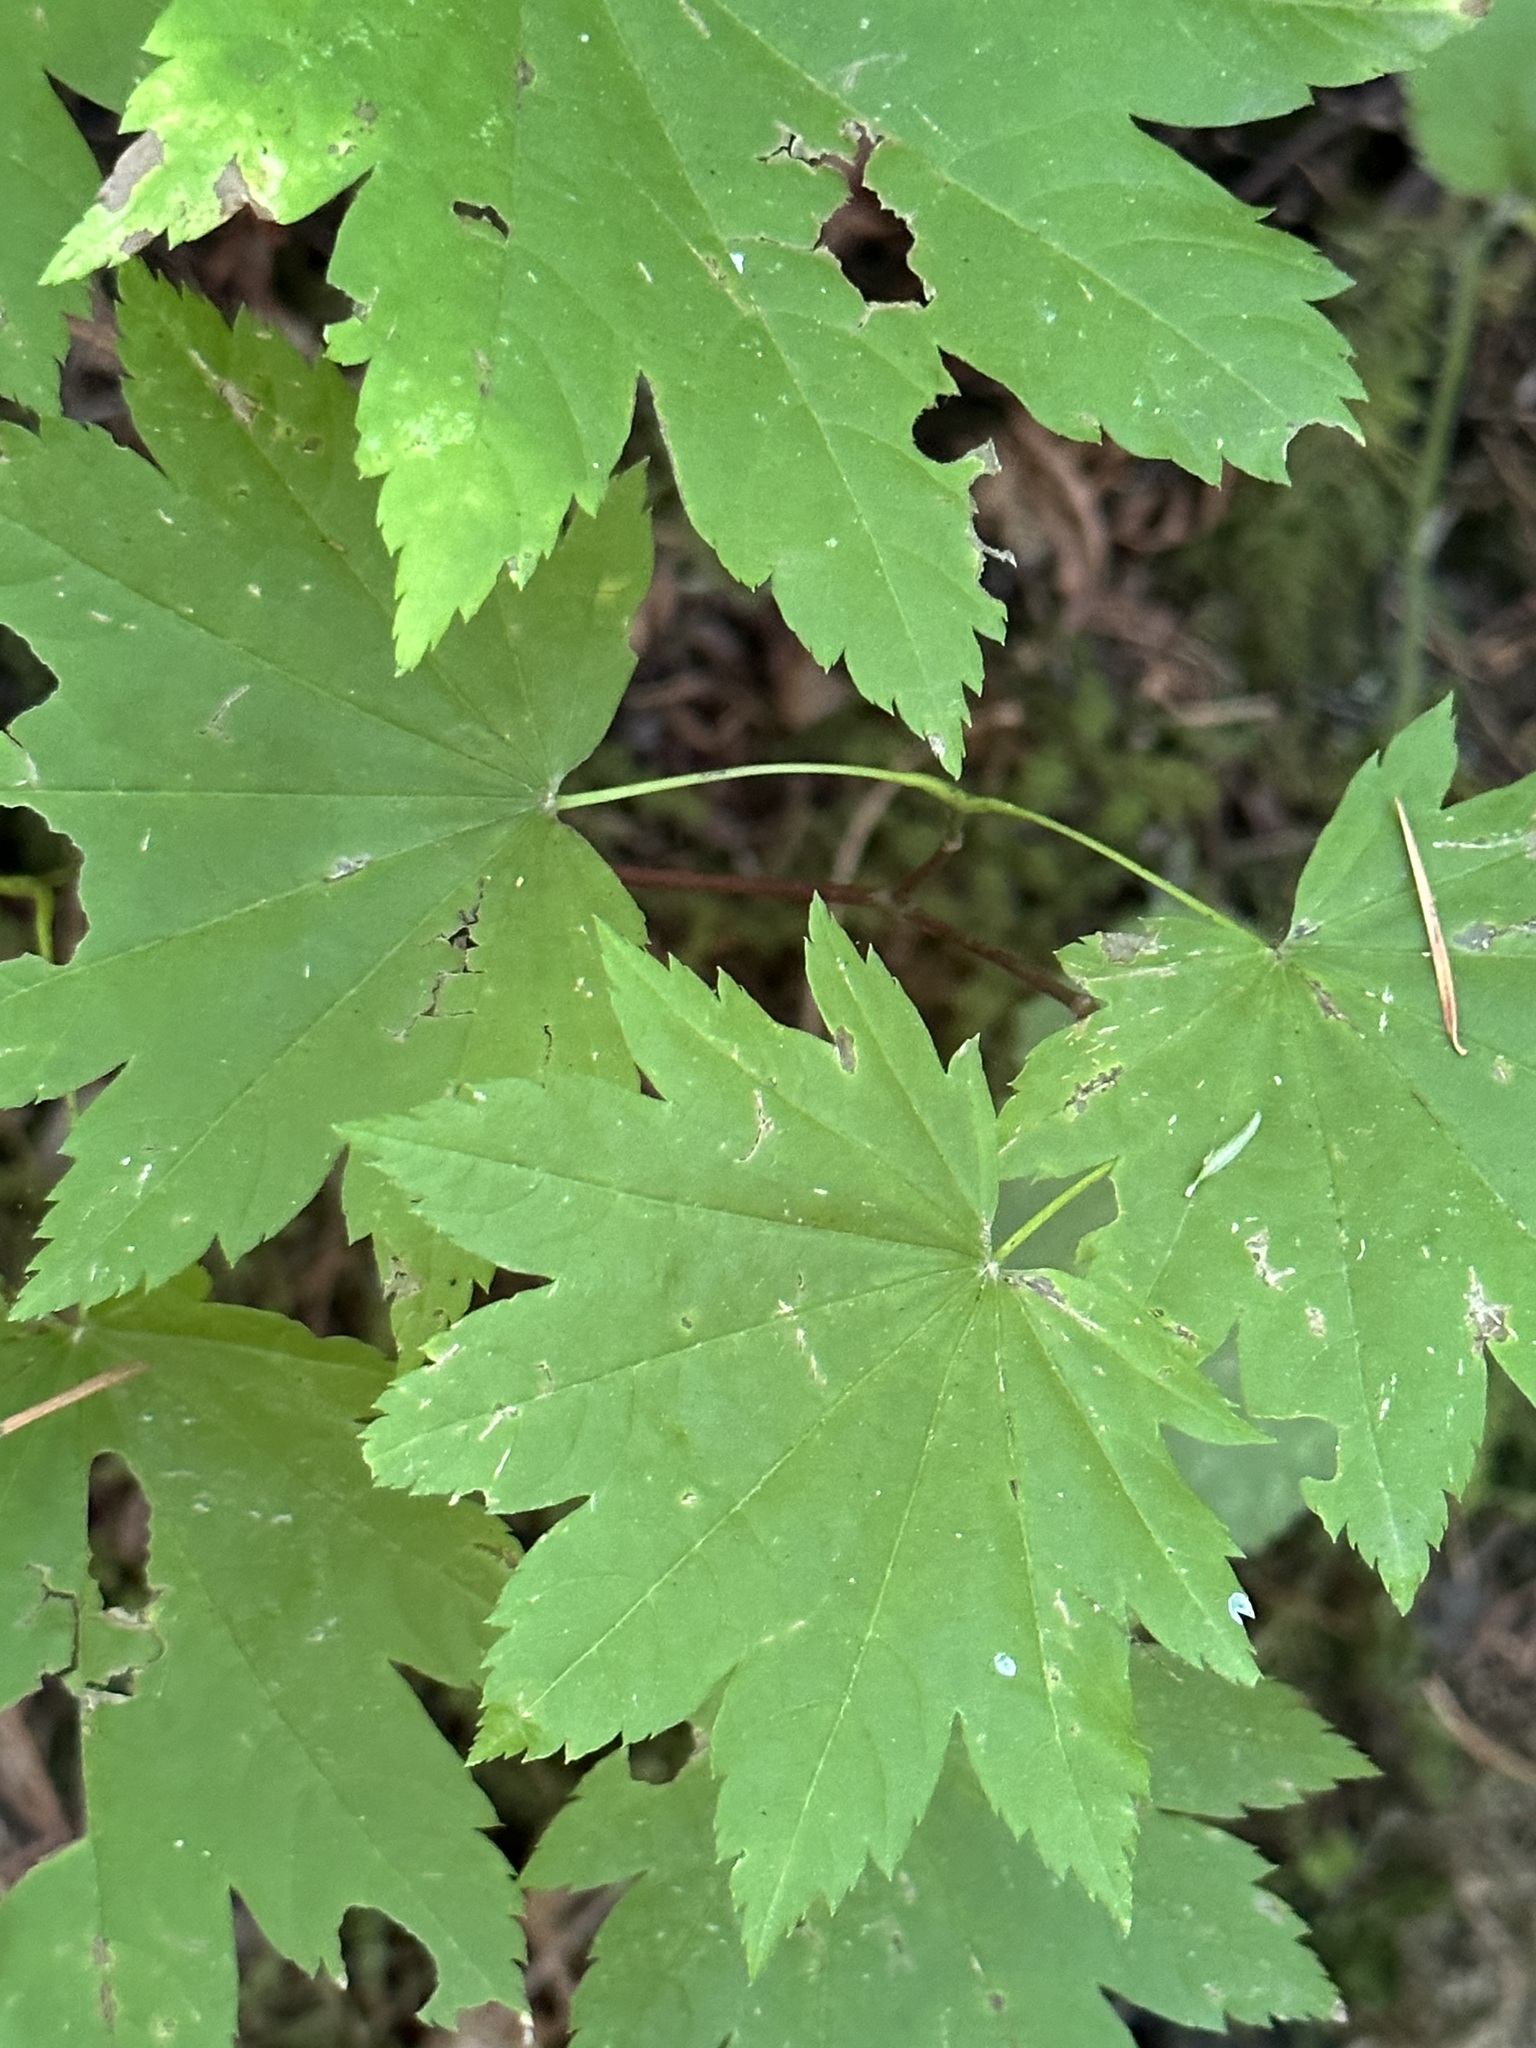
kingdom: Plantae
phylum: Tracheophyta
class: Magnoliopsida
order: Sapindales
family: Sapindaceae
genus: Acer
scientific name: Acer circinatum
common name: Vine maple
